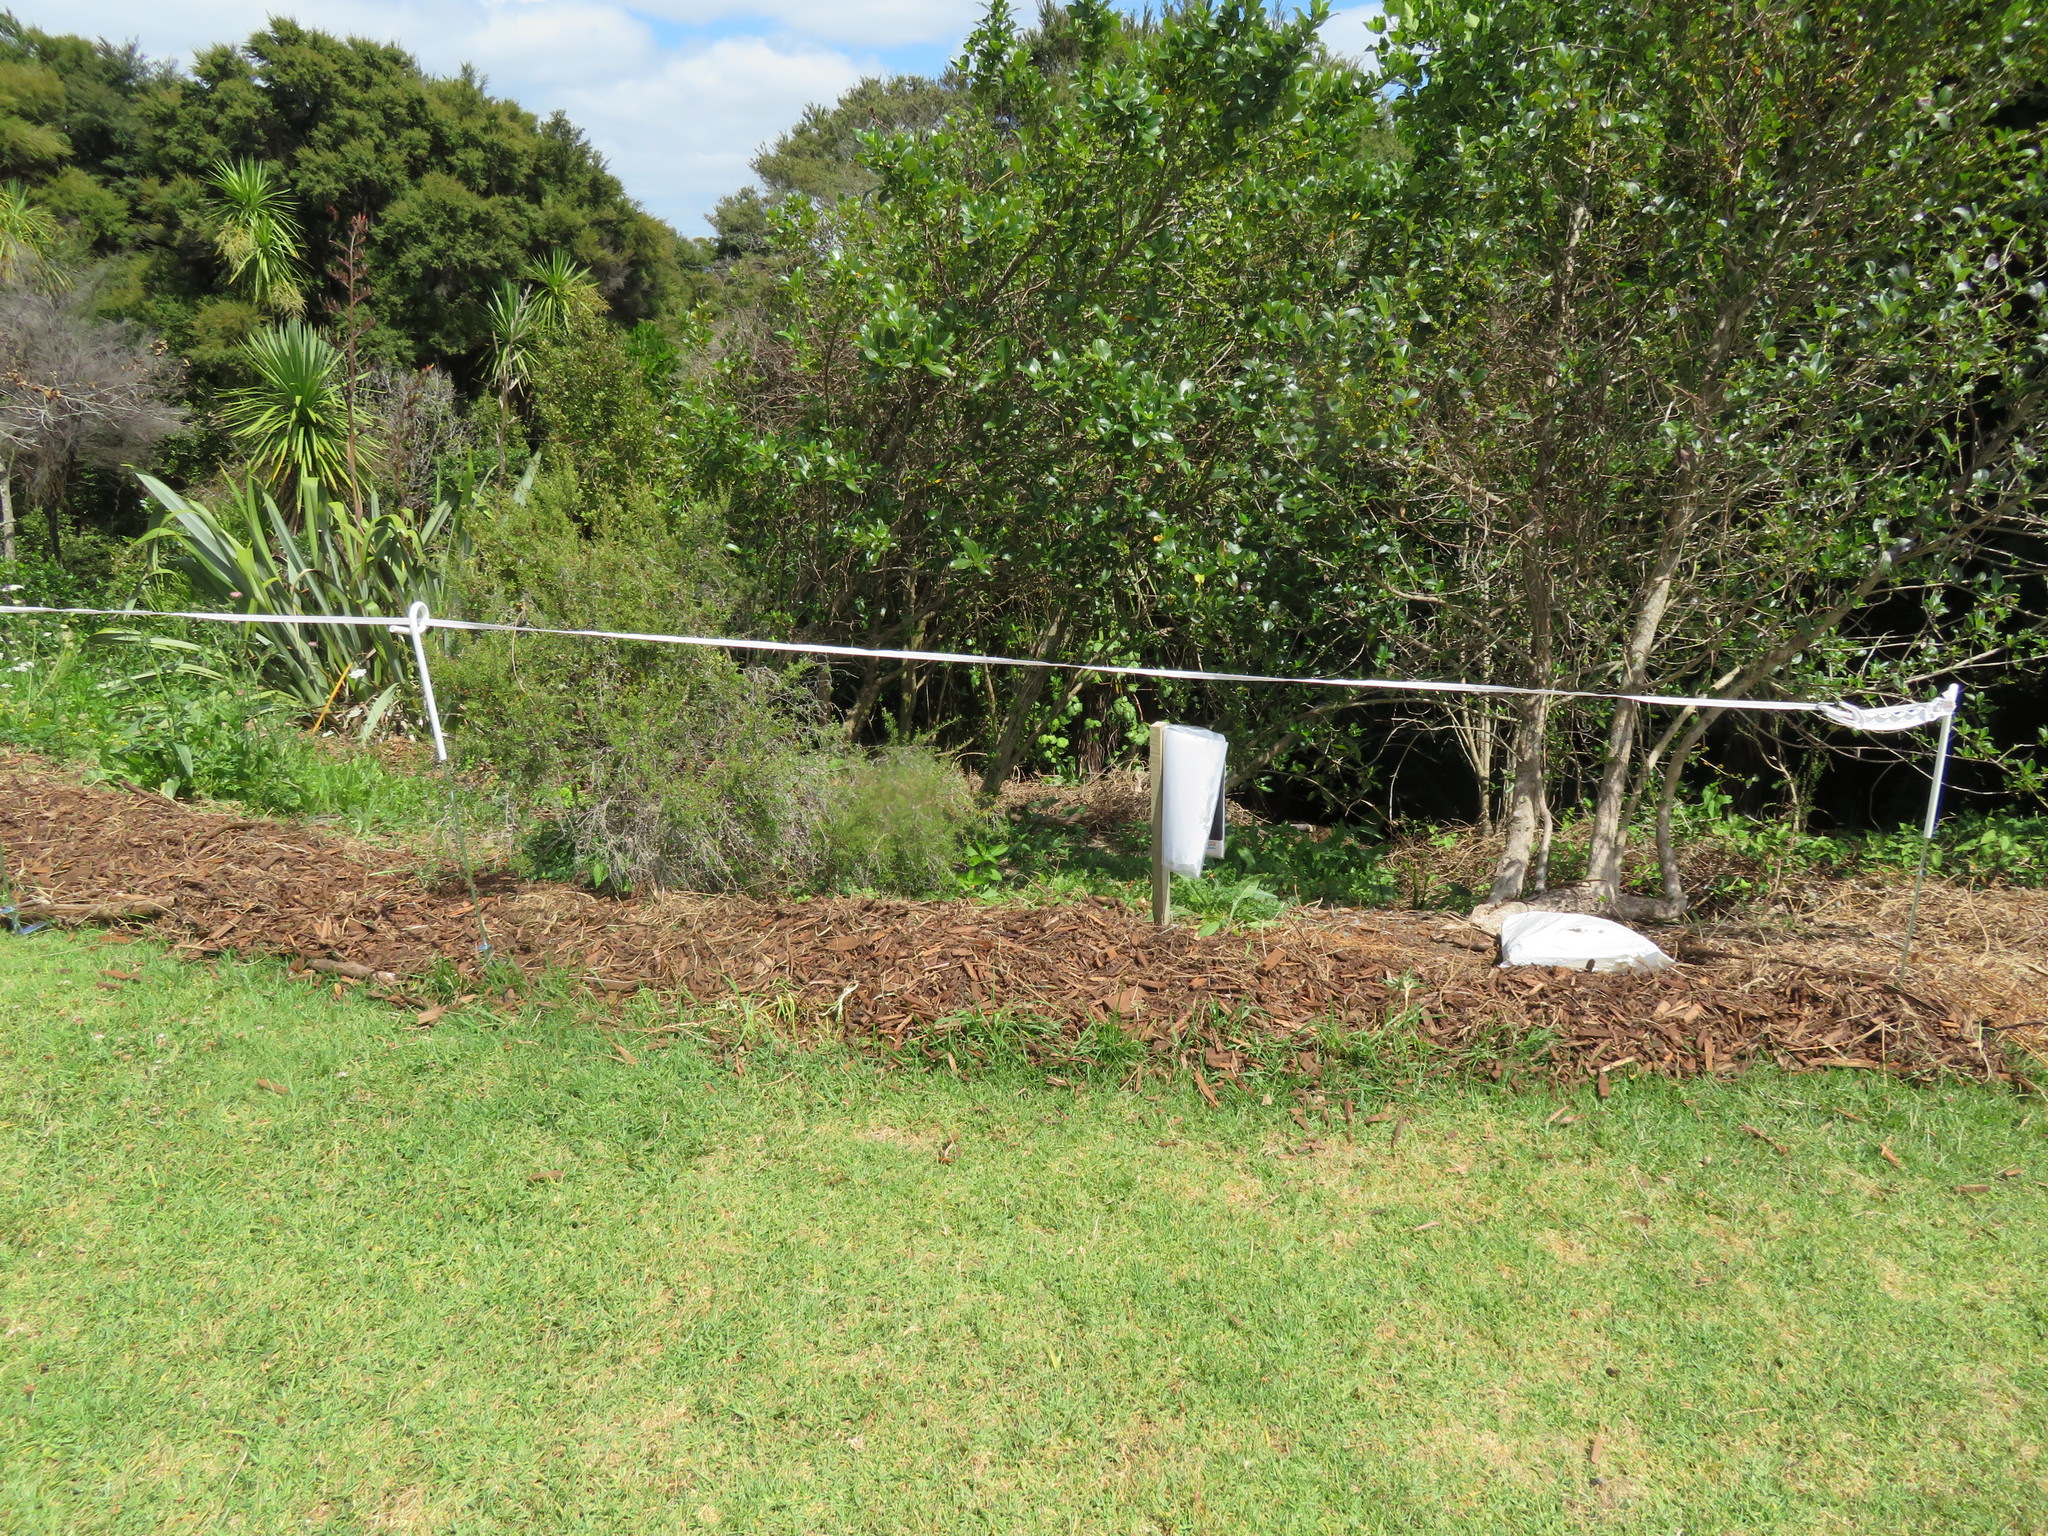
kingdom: Plantae
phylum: Tracheophyta
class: Magnoliopsida
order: Piperales
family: Piperaceae
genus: Macropiper
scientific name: Macropiper excelsum
